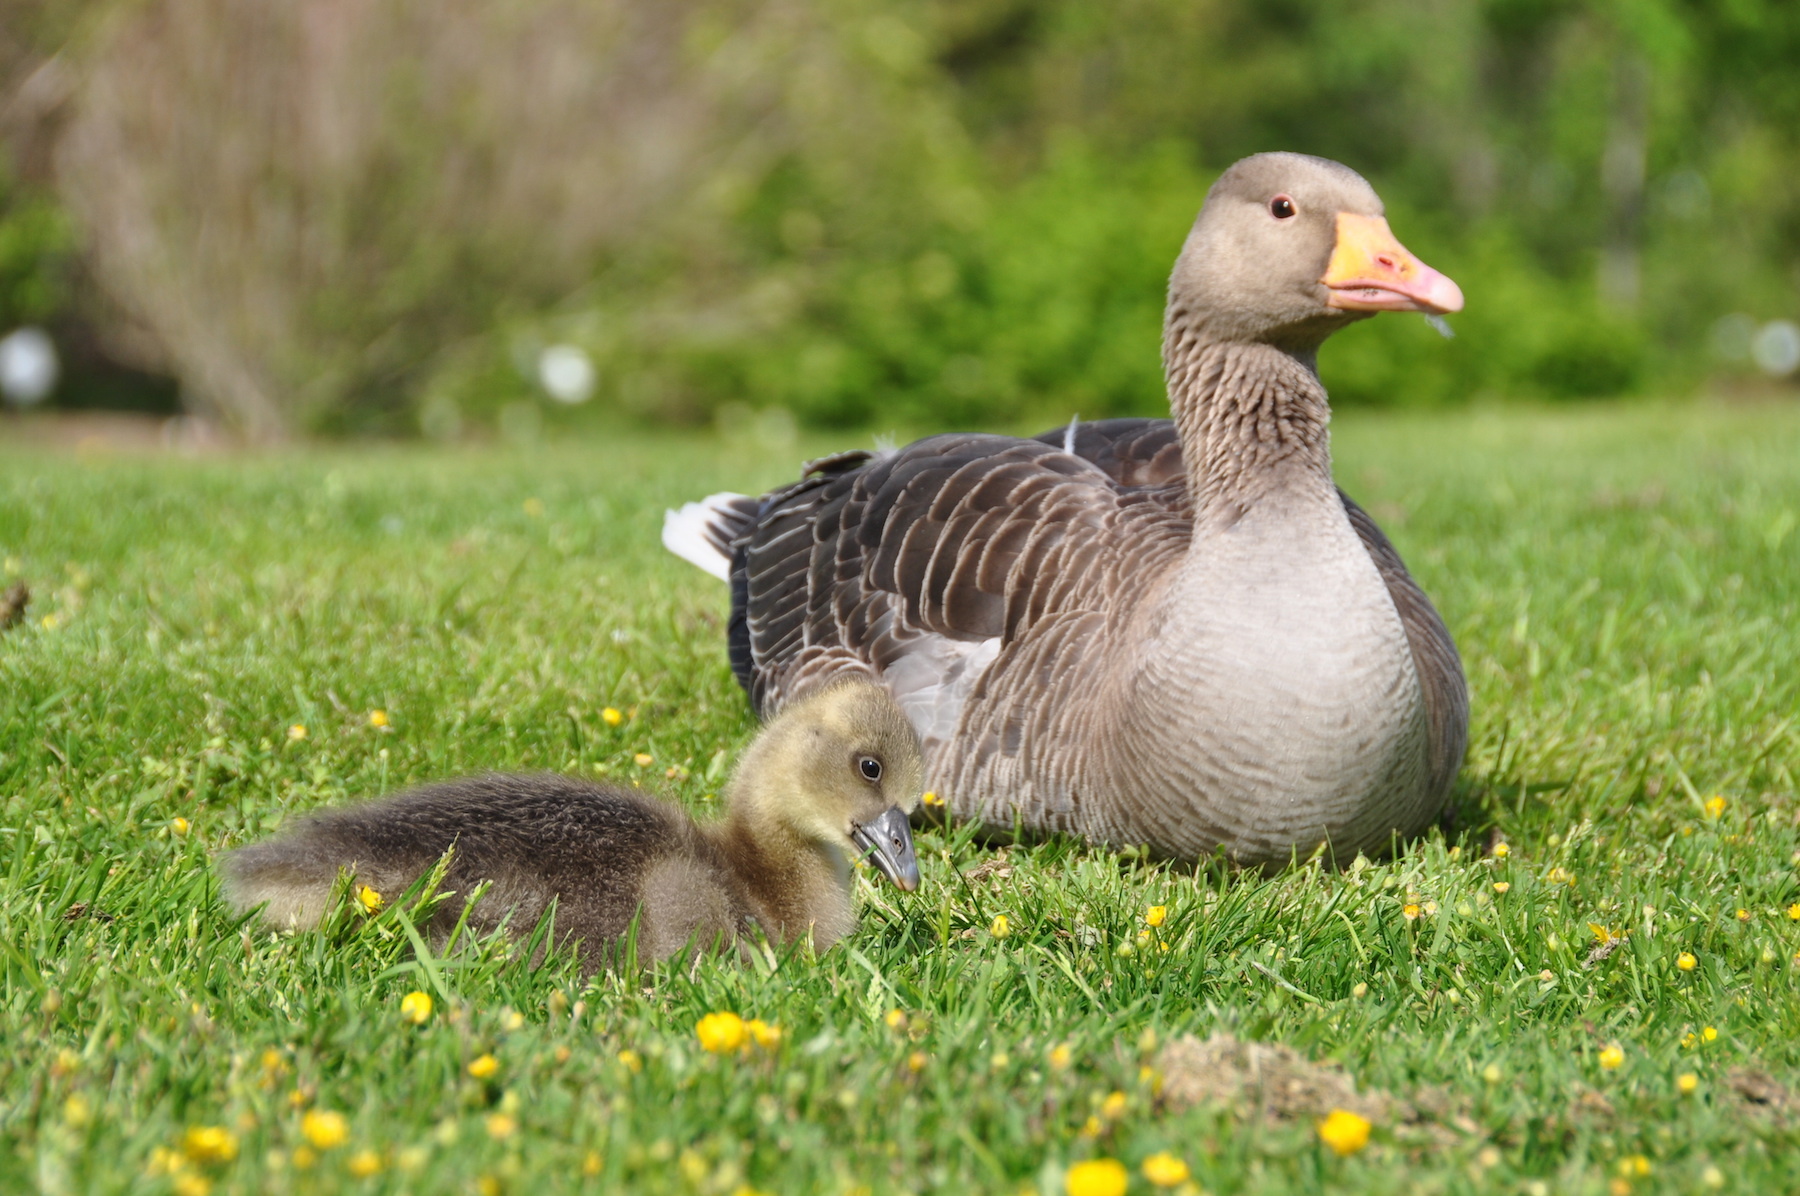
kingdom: Animalia
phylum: Chordata
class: Aves
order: Anseriformes
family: Anatidae
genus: Anser
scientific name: Anser anser
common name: Greylag goose
